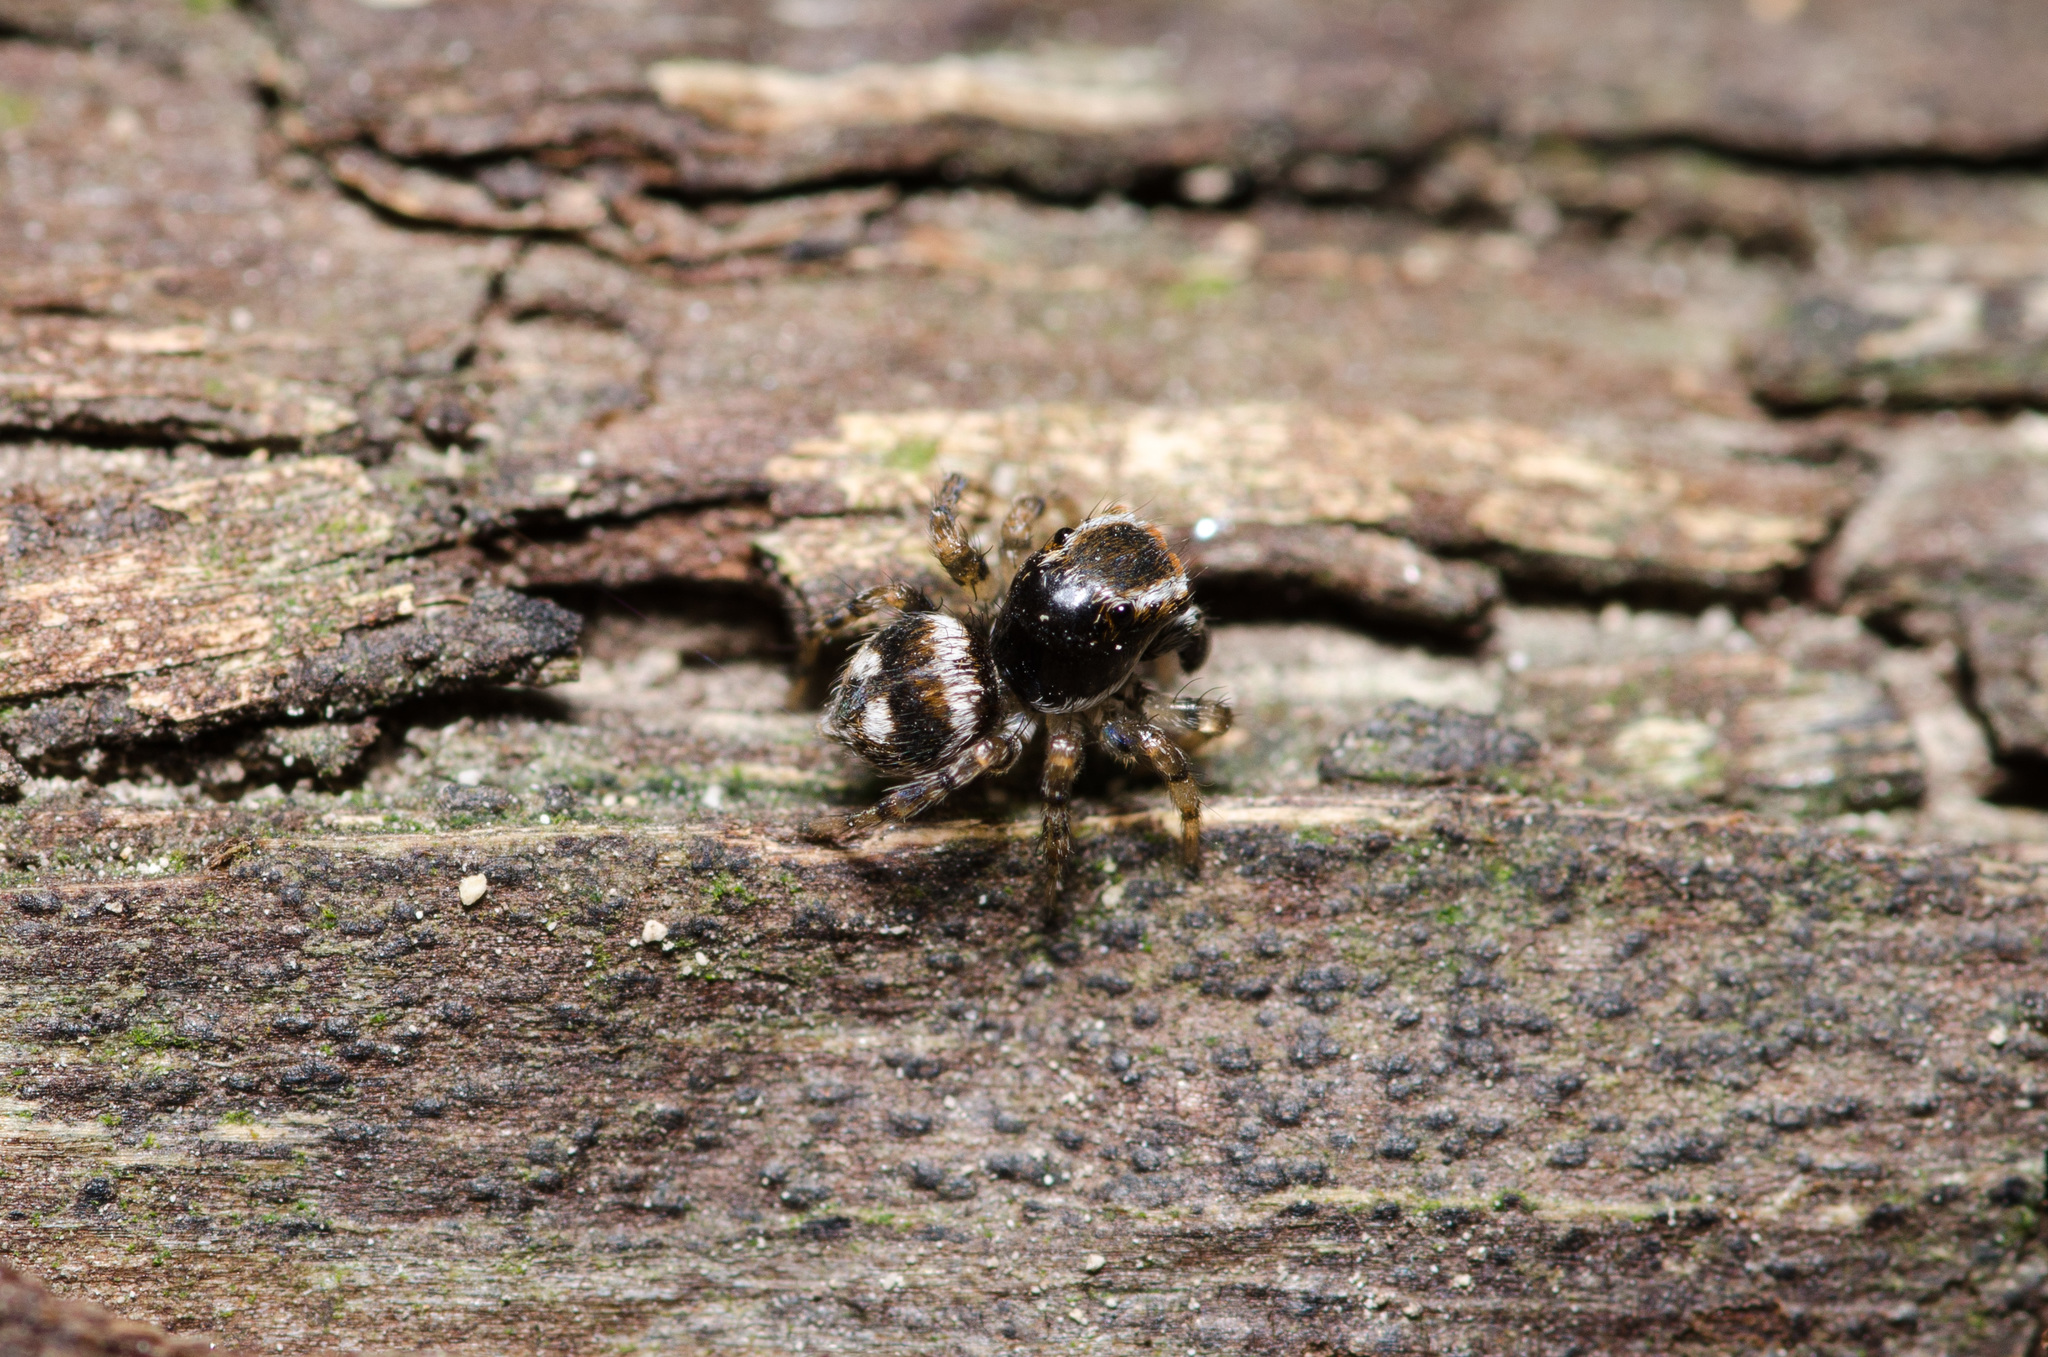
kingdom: Animalia
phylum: Arthropoda
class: Arachnida
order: Araneae
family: Salticidae
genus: Naphrys
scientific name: Naphrys acerba
